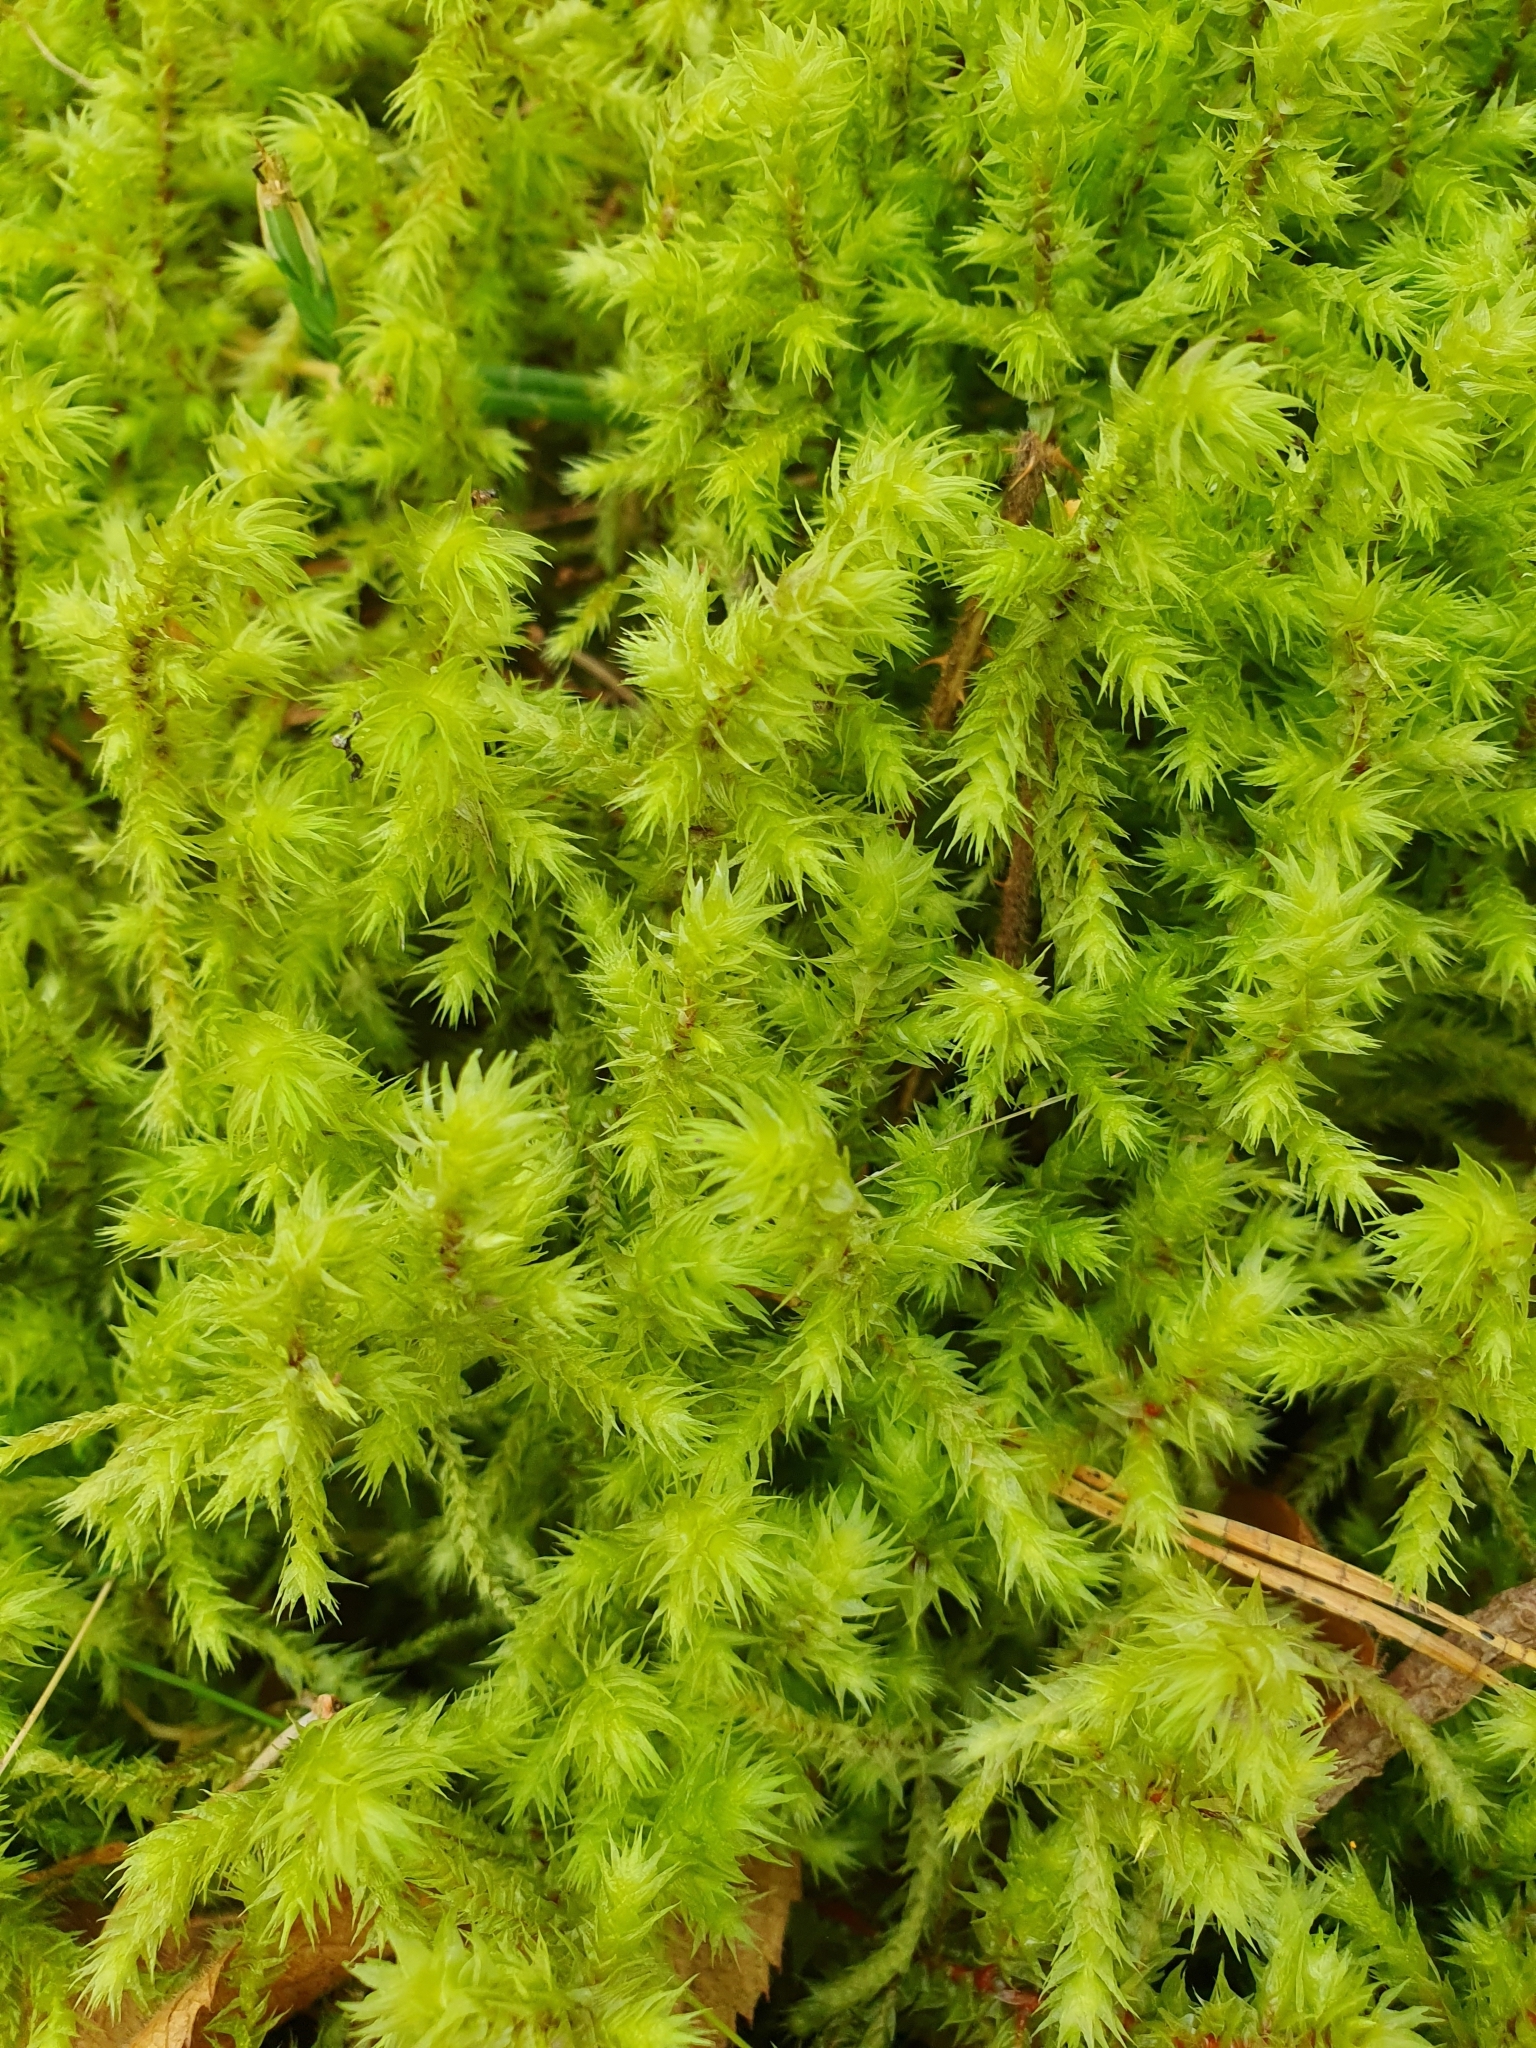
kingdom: Plantae
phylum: Bryophyta
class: Bryopsida
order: Hypnales
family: Hylocomiaceae
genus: Hylocomiadelphus
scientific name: Hylocomiadelphus triquetrus
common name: Rough goose neck moss
